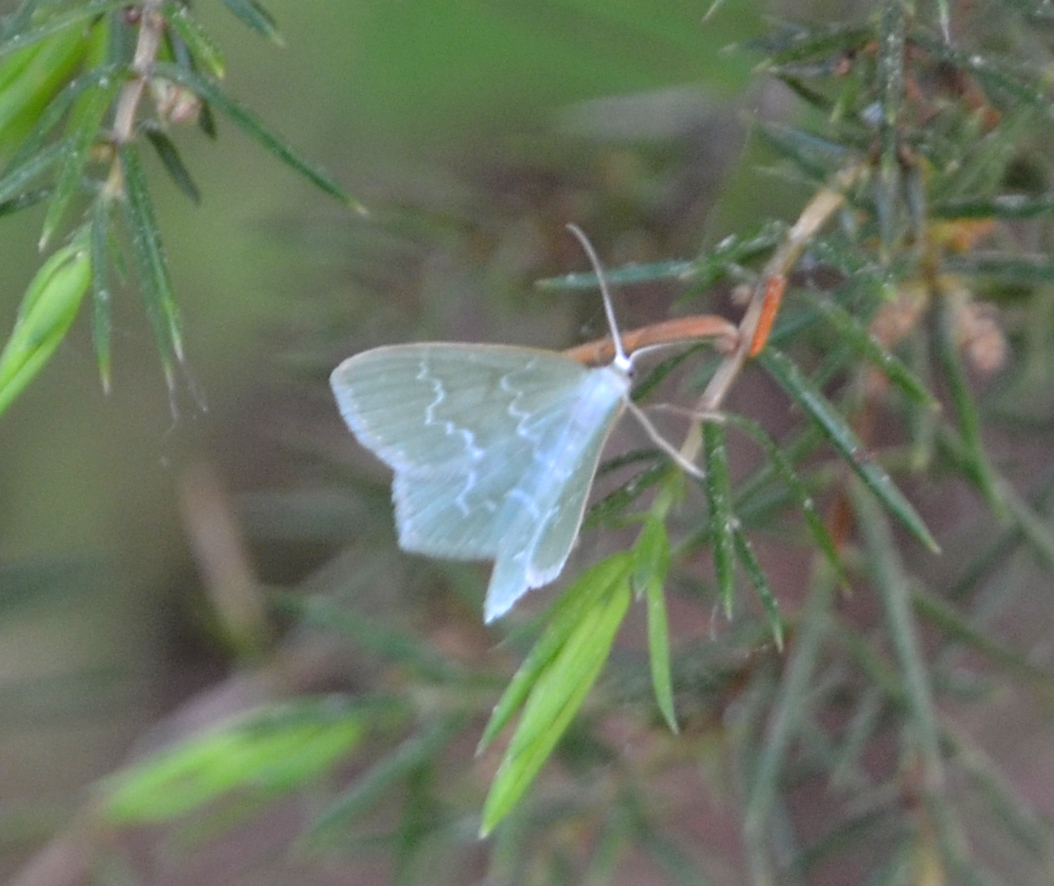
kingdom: Animalia
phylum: Arthropoda
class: Insecta
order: Lepidoptera
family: Geometridae
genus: Jodis
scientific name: Jodis putata
